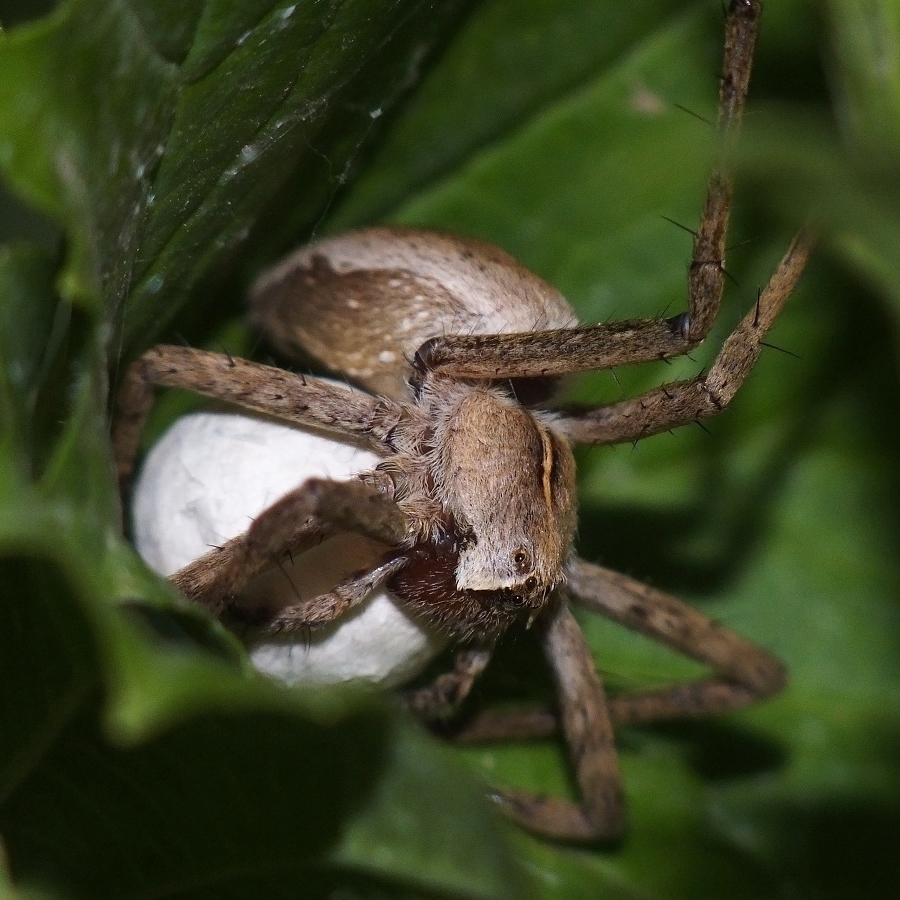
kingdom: Animalia
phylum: Arthropoda
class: Arachnida
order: Araneae
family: Pisauridae
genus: Pisaura
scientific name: Pisaura
